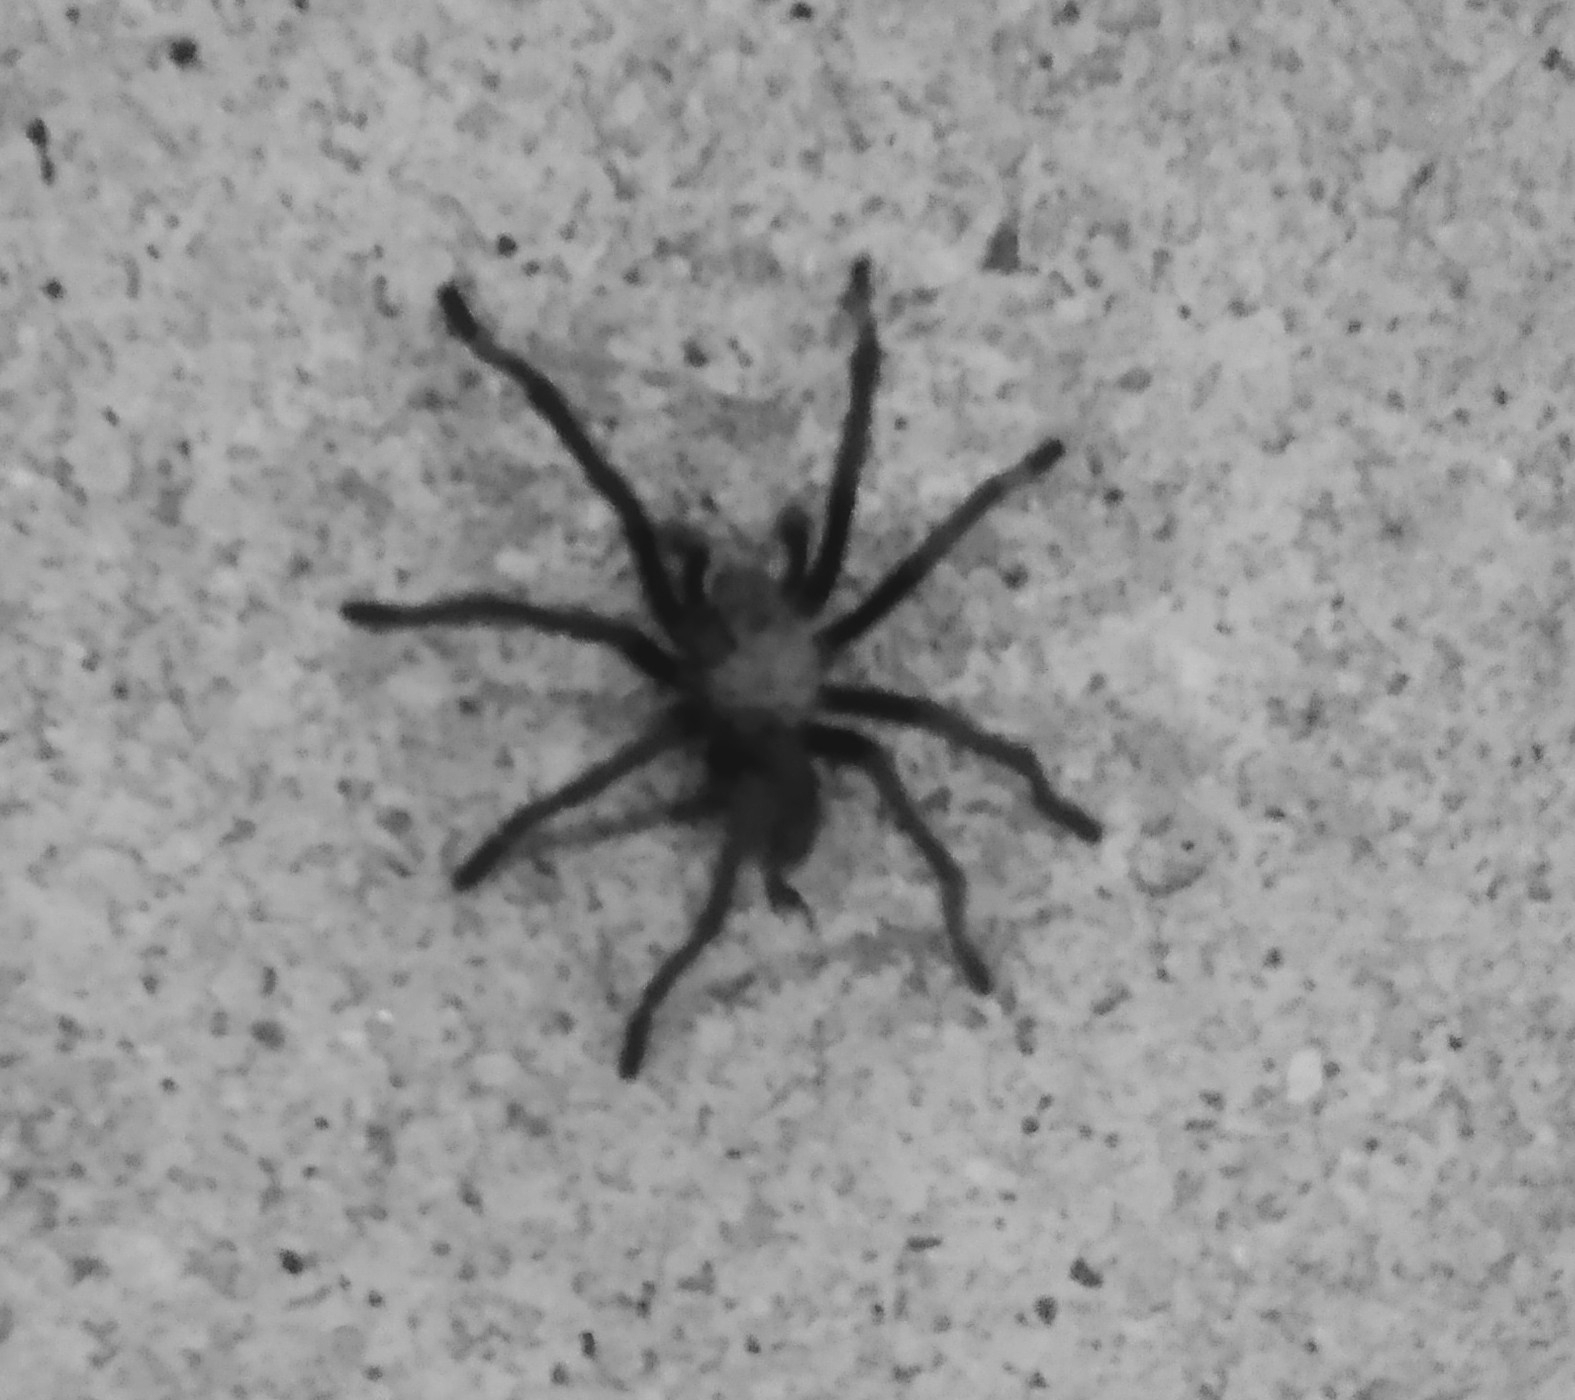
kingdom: Animalia
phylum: Arthropoda
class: Arachnida
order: Araneae
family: Theraphosidae
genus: Aphonopelma
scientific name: Aphonopelma iodius
